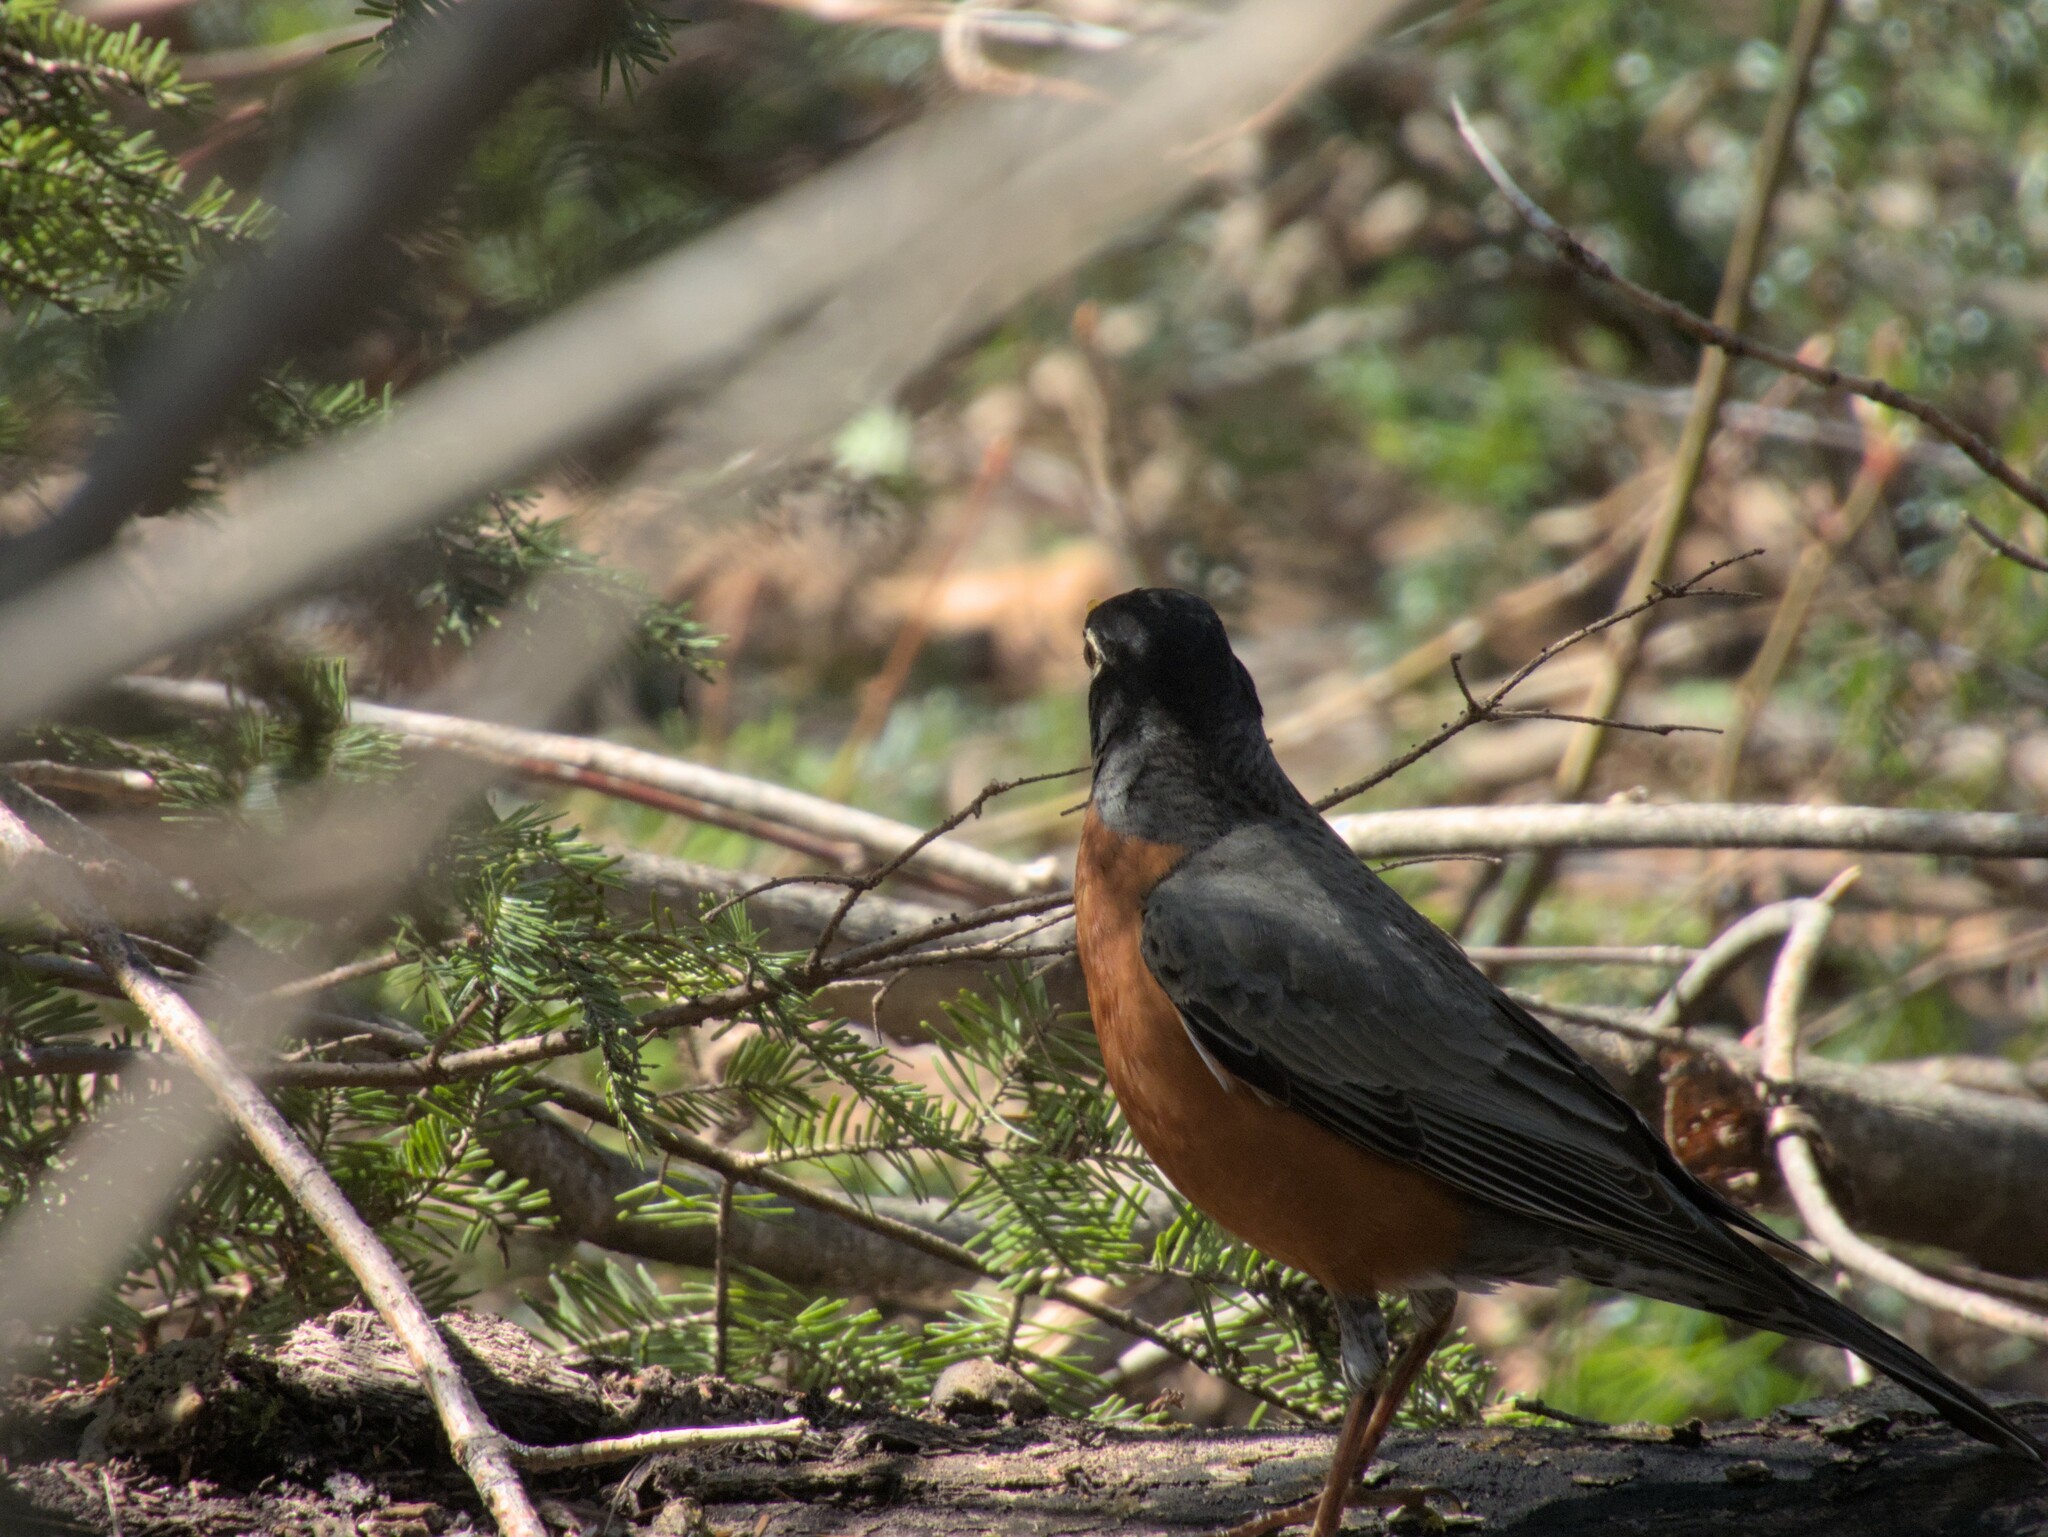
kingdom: Animalia
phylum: Chordata
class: Aves
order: Passeriformes
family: Turdidae
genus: Turdus
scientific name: Turdus migratorius
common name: American robin
